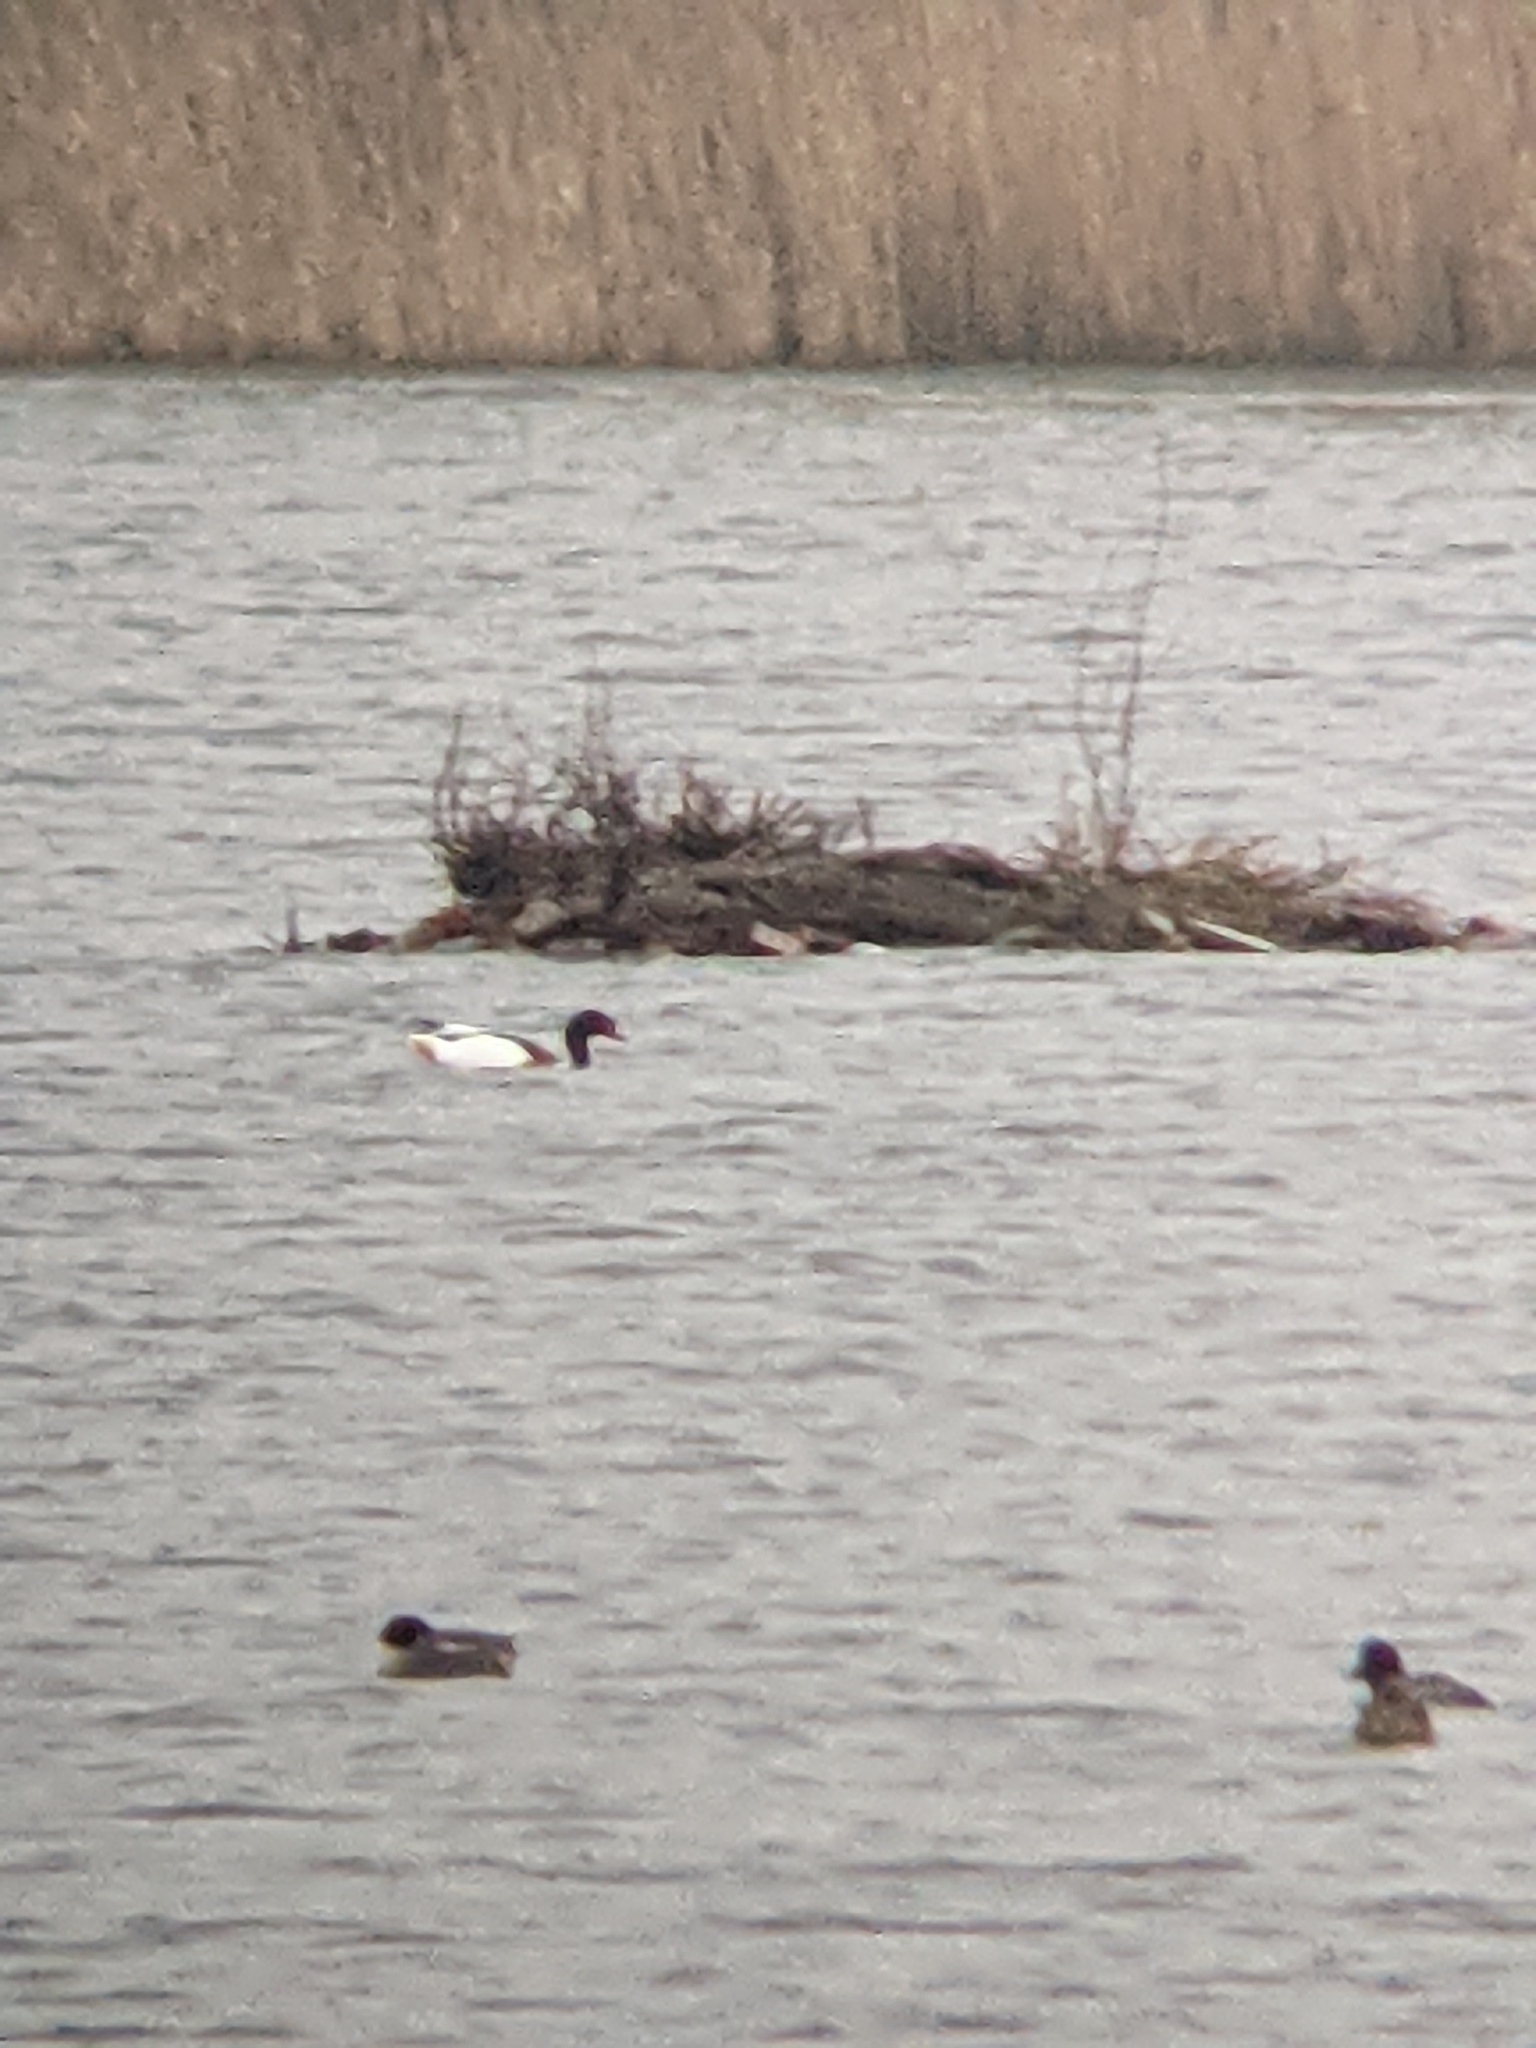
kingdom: Animalia
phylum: Chordata
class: Aves
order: Anseriformes
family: Anatidae
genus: Tadorna
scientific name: Tadorna tadorna
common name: Common shelduck
